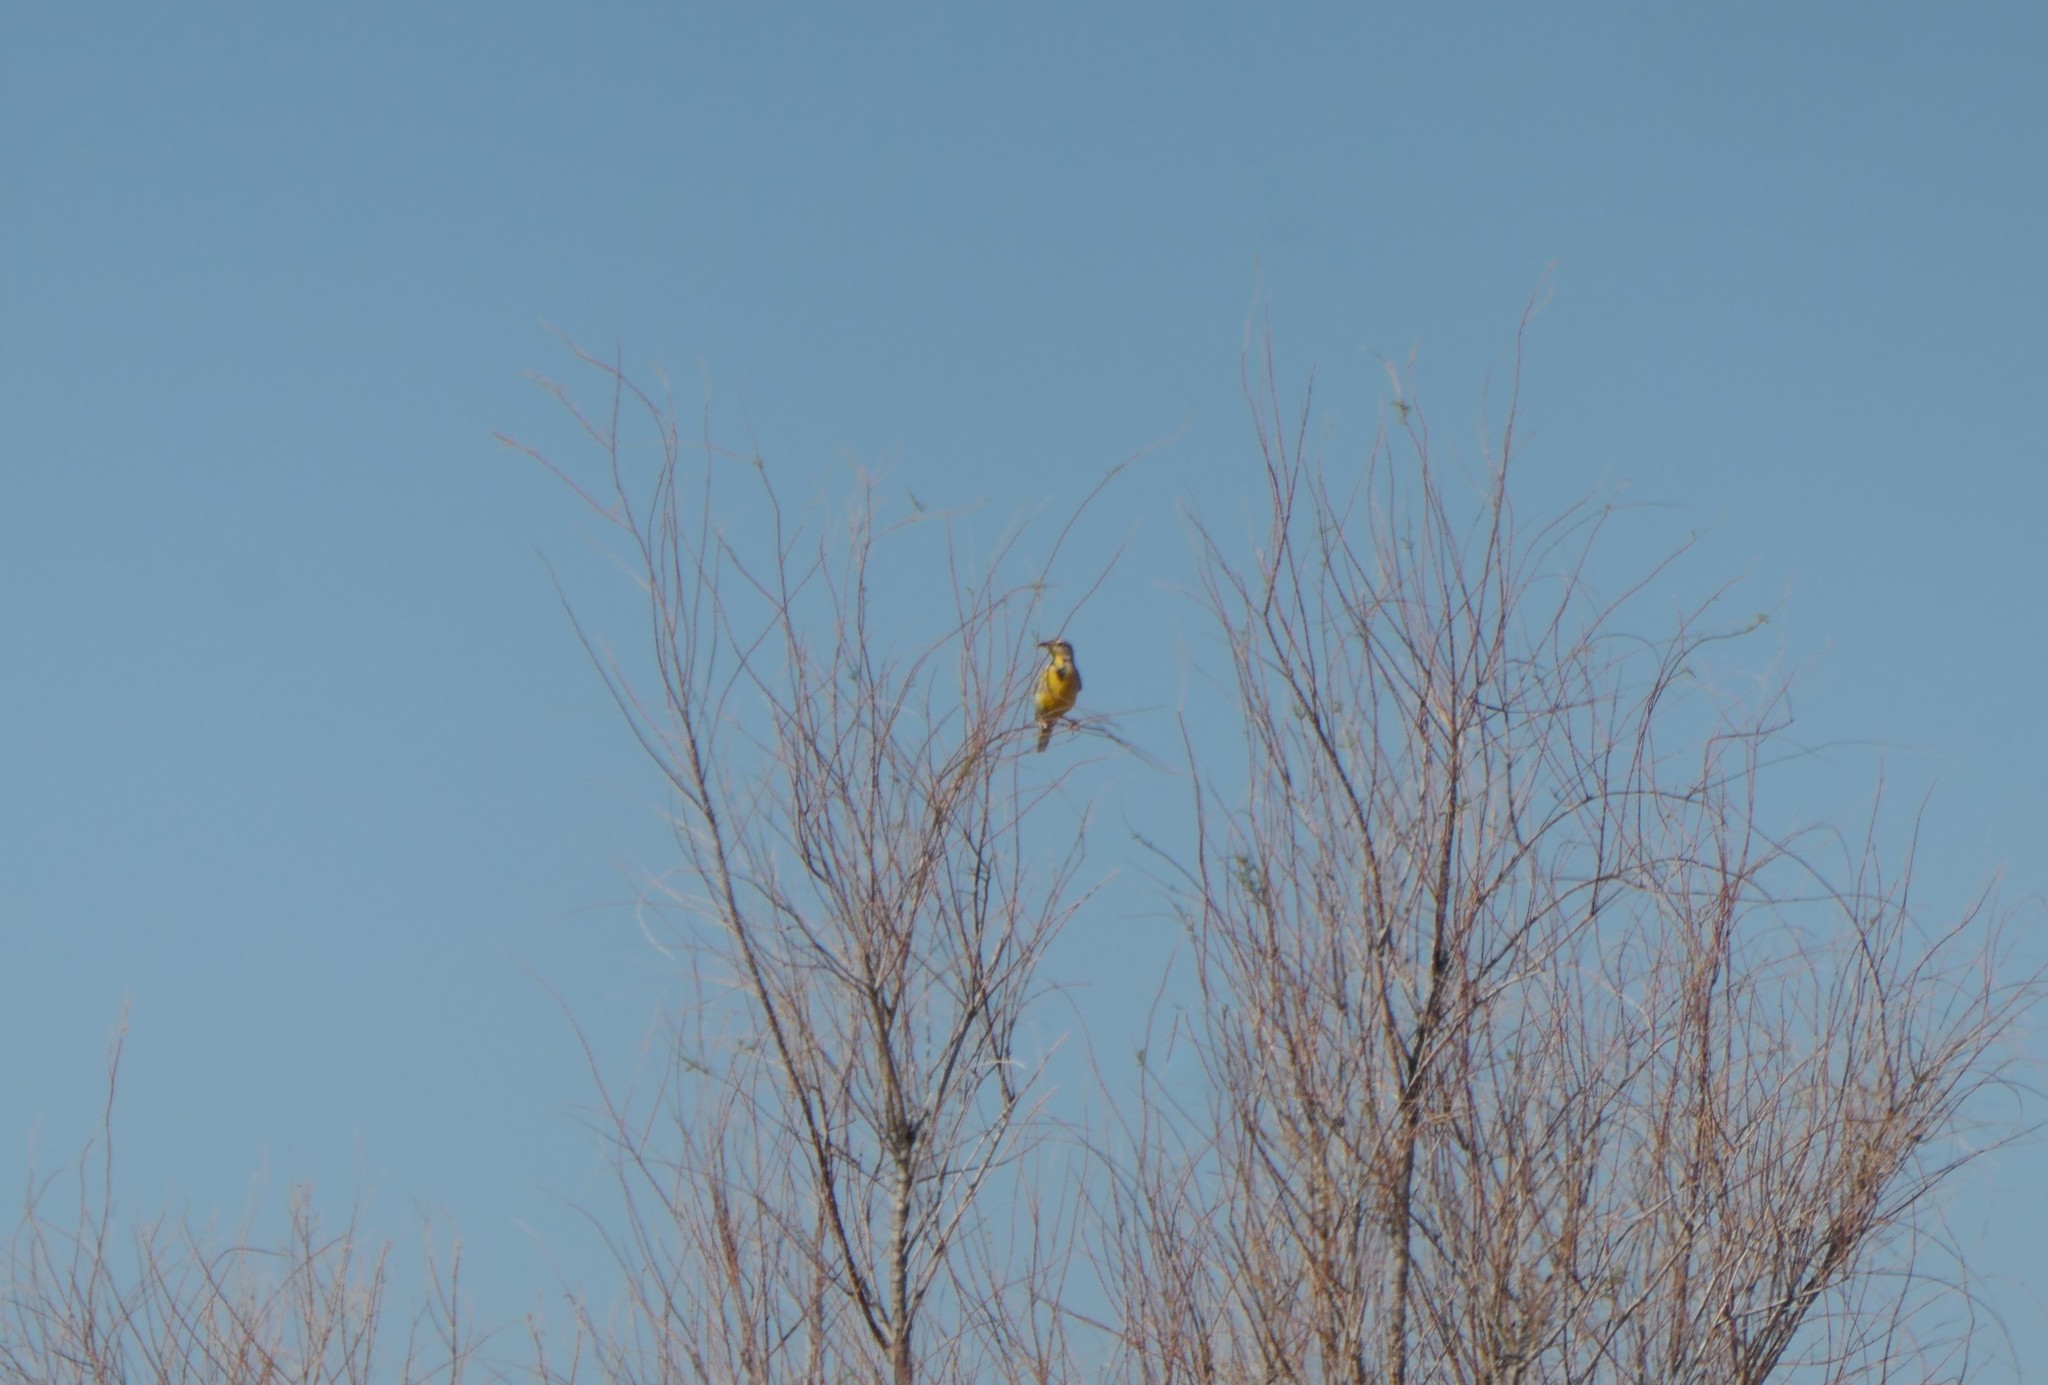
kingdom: Animalia
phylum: Chordata
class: Aves
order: Passeriformes
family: Icteridae
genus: Sturnella
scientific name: Sturnella neglecta
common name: Western meadowlark
